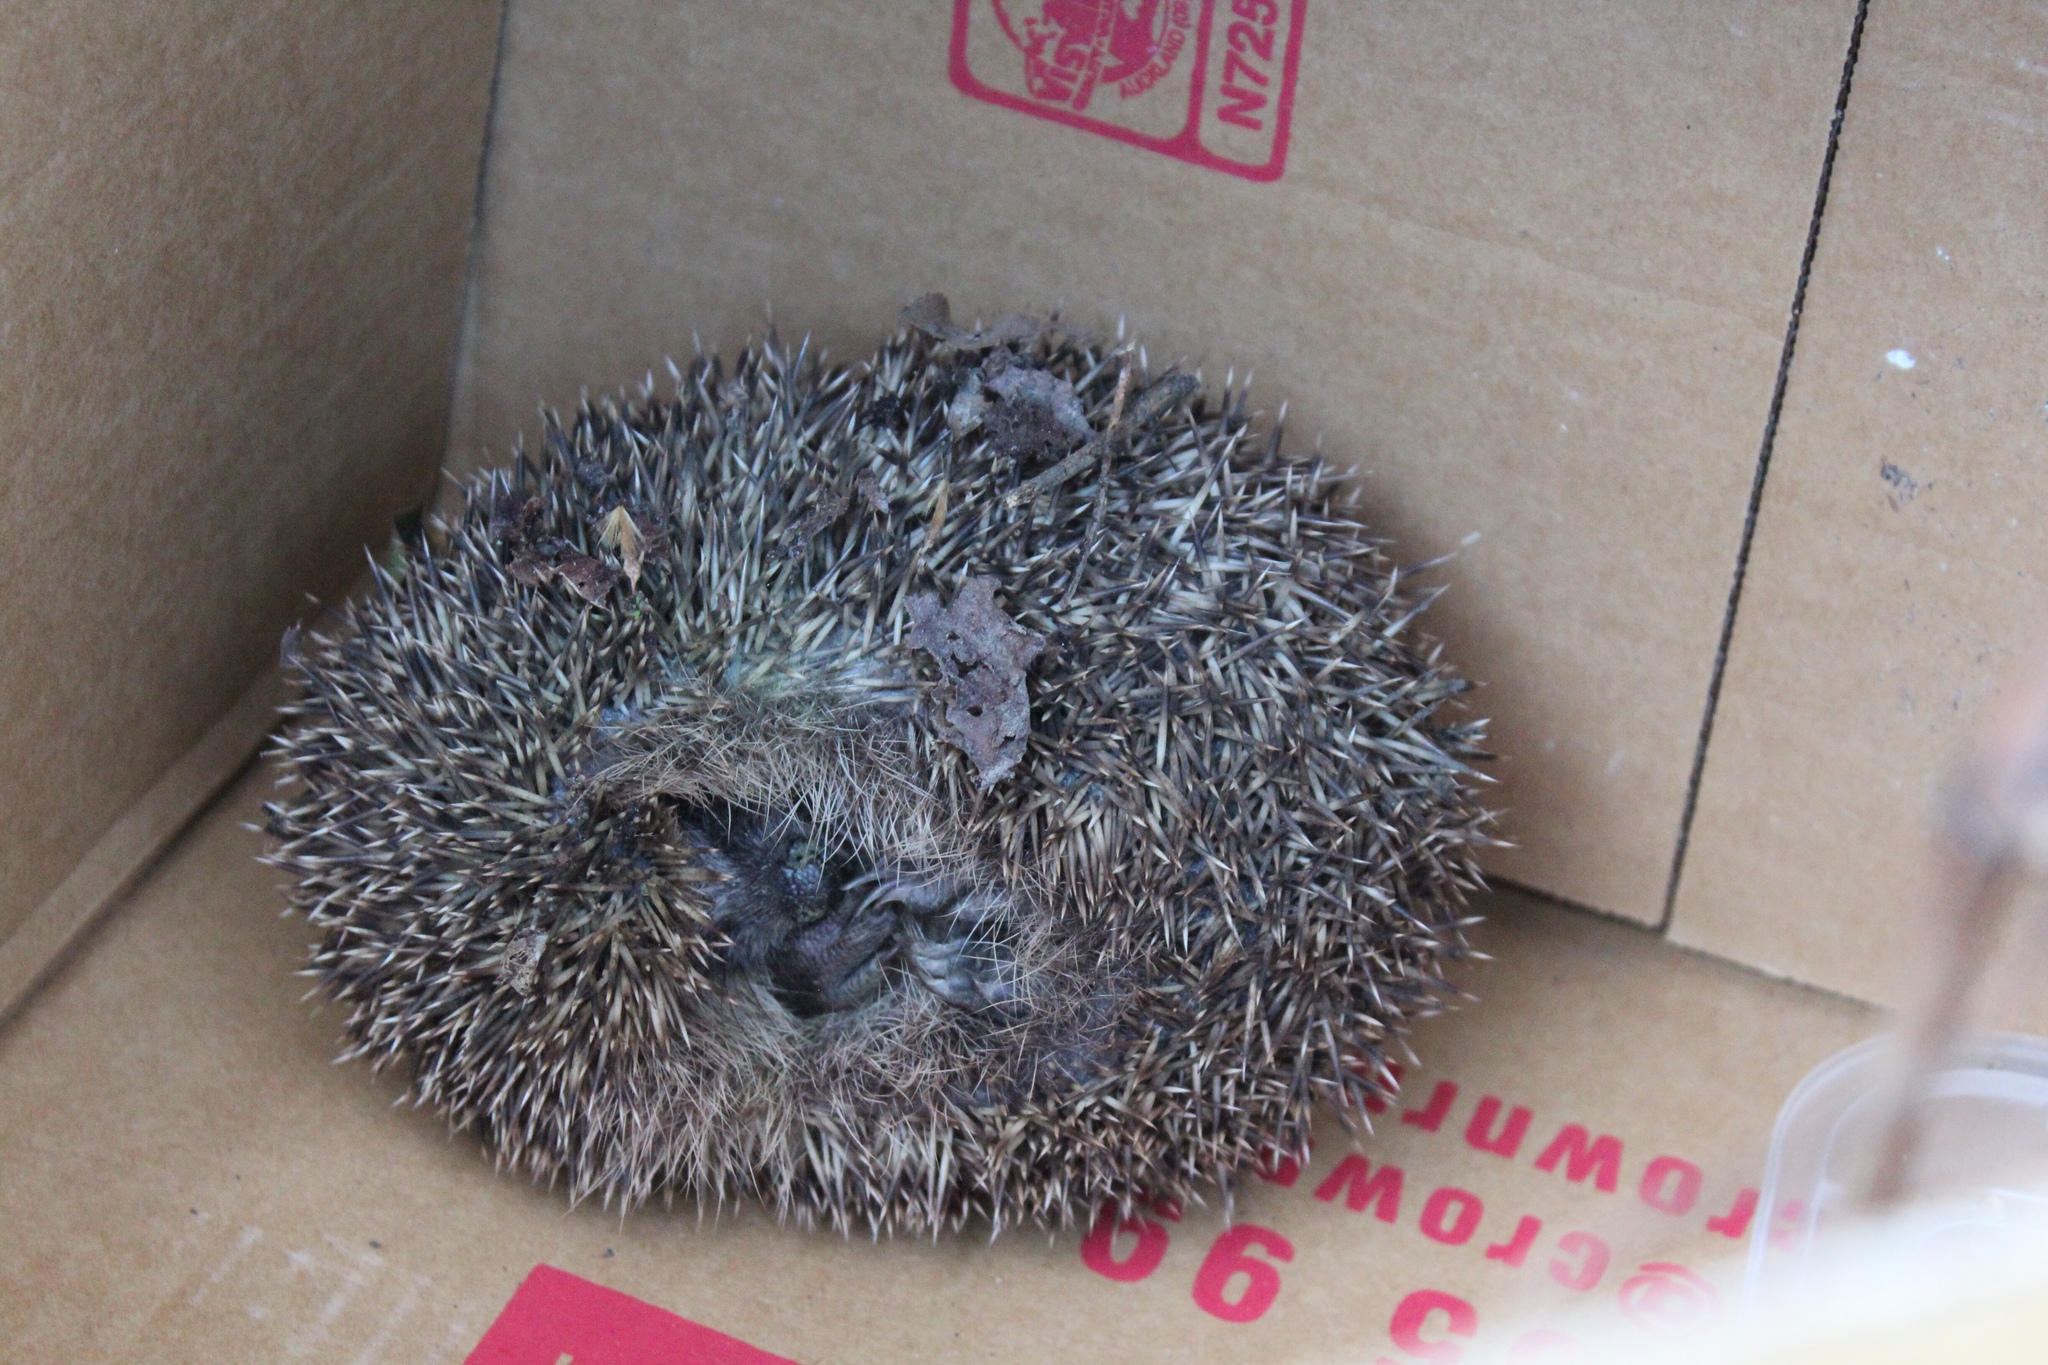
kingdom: Animalia
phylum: Chordata
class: Mammalia
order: Erinaceomorpha
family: Erinaceidae
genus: Erinaceus
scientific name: Erinaceus europaeus
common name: West european hedgehog
